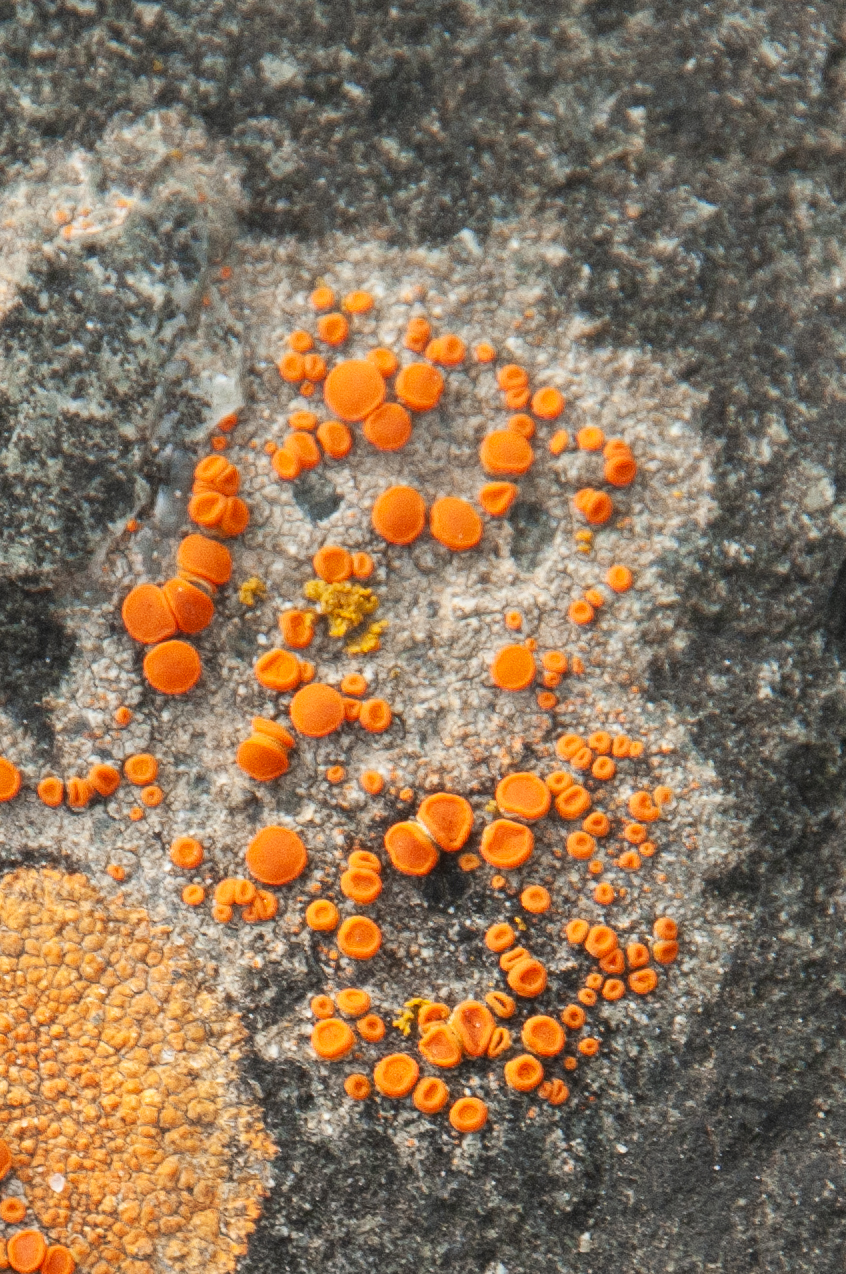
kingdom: Fungi
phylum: Ascomycota
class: Lecanoromycetes
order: Teloschistales
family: Teloschistaceae
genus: Tomnashia
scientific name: Tomnashia luteominia
